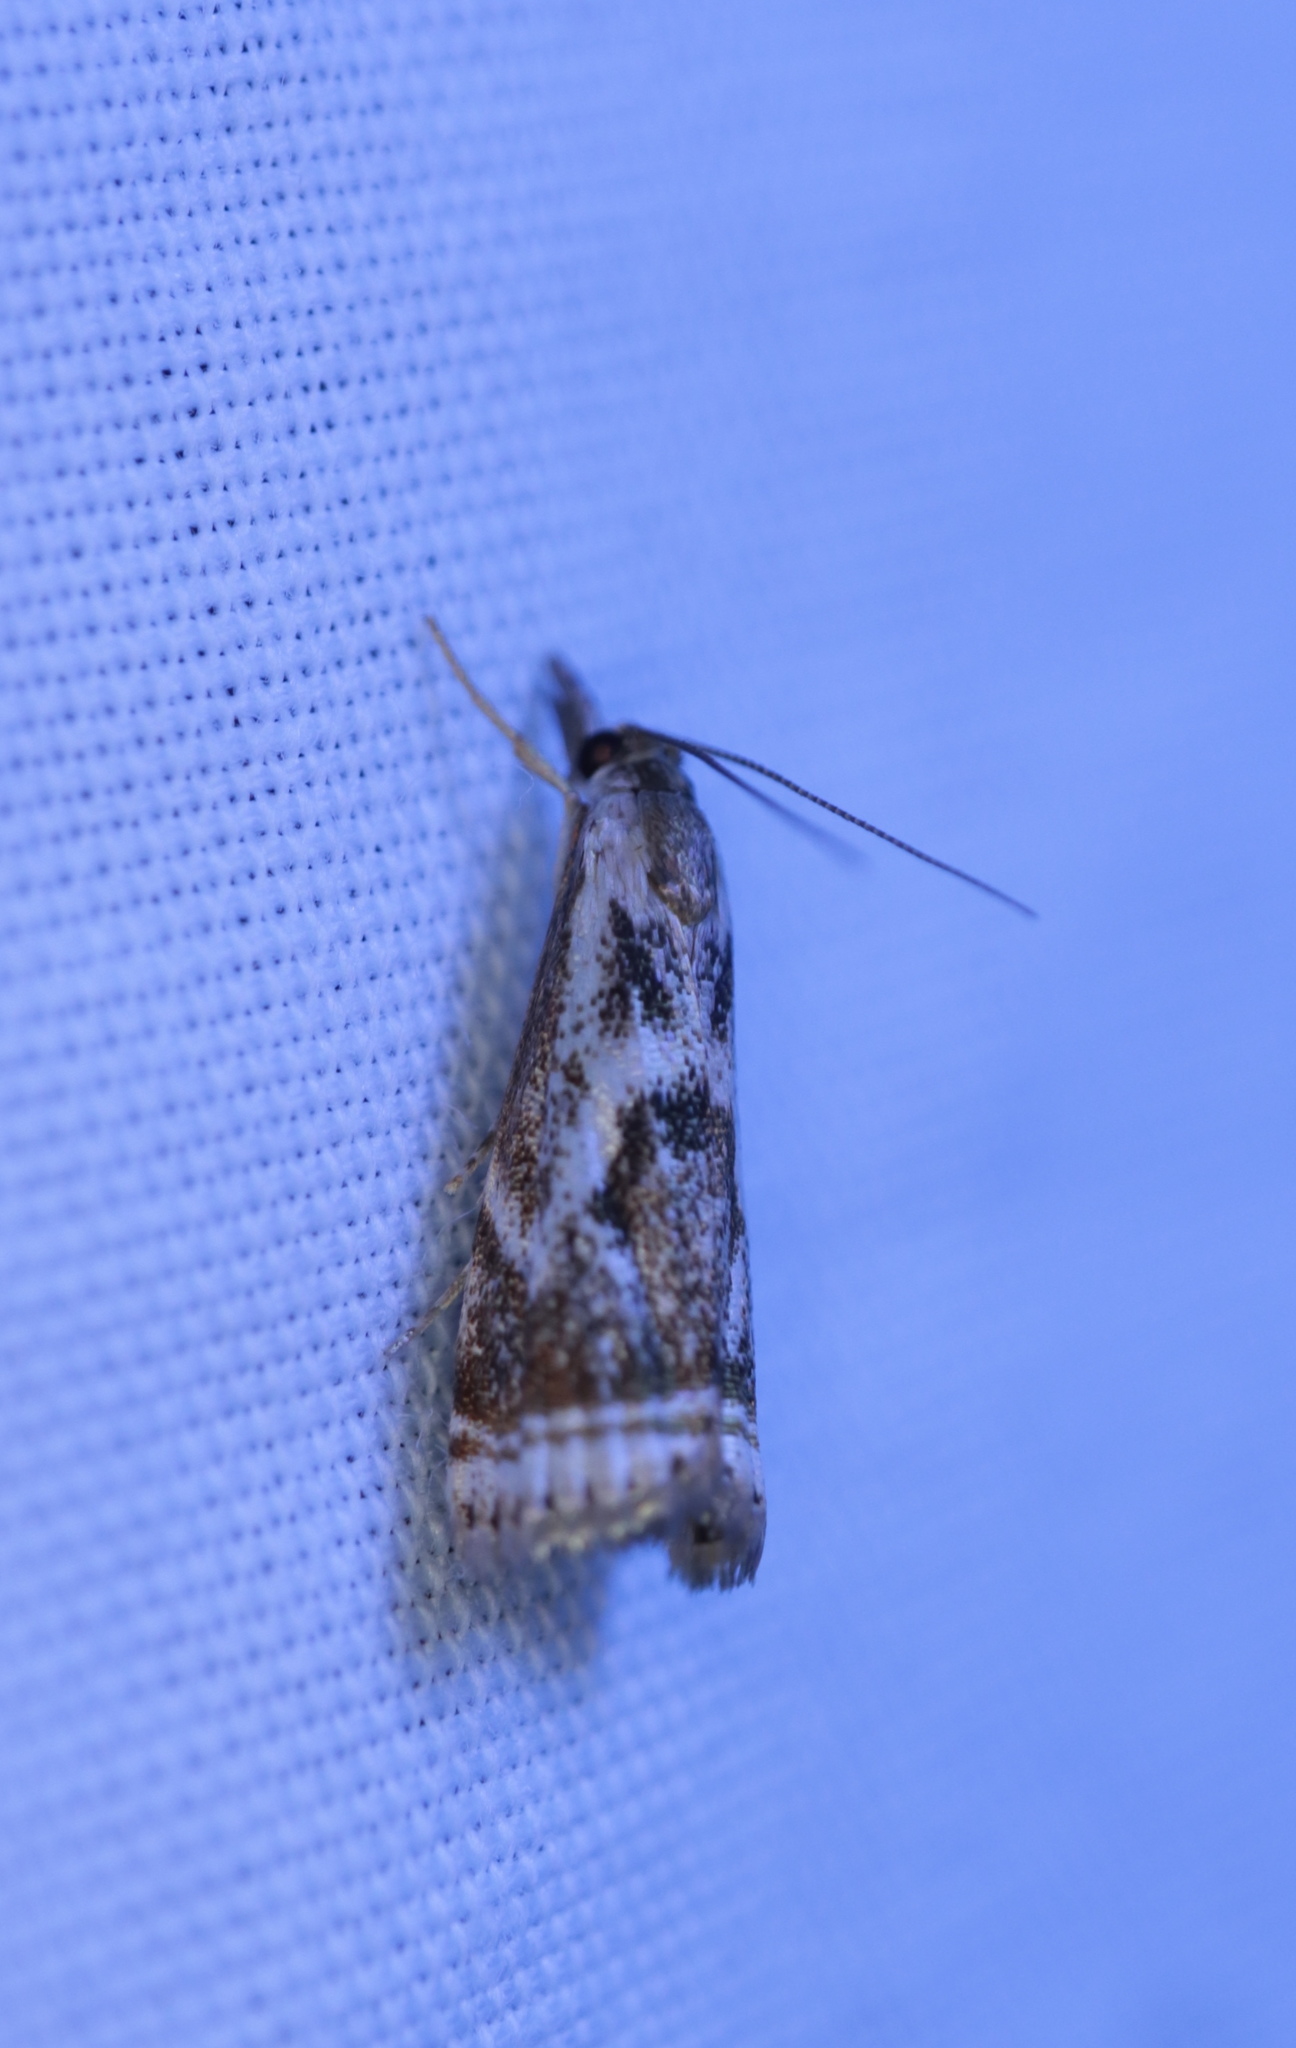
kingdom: Animalia
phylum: Arthropoda
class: Insecta
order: Lepidoptera
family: Crambidae
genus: Microcrambus
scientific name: Microcrambus elegans
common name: Elegant grass-veneer
